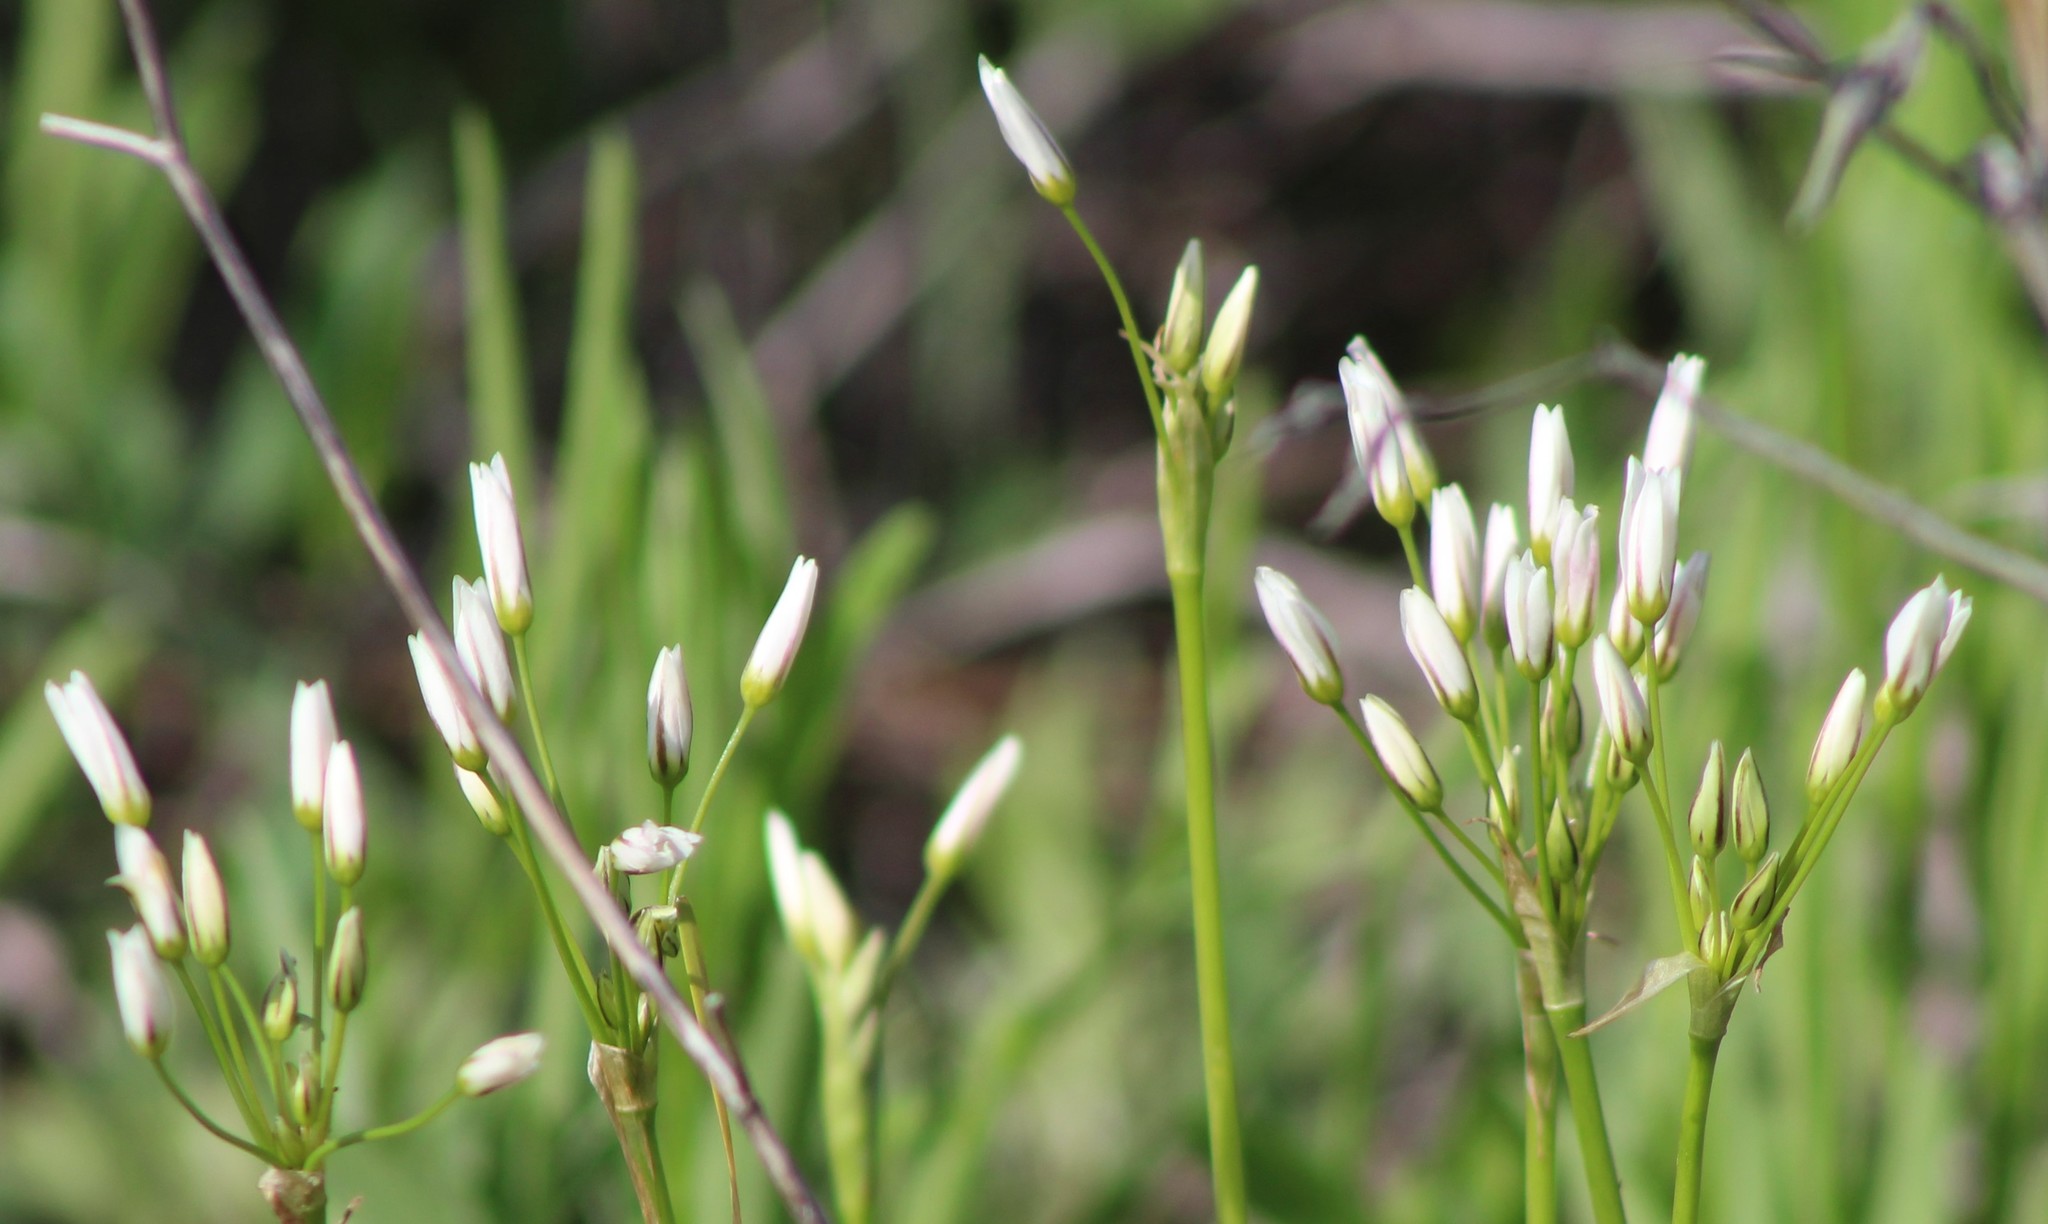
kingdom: Plantae
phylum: Tracheophyta
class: Liliopsida
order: Asparagales
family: Amaryllidaceae
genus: Nothoscordum
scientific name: Nothoscordum bivalve
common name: Crow-poison
